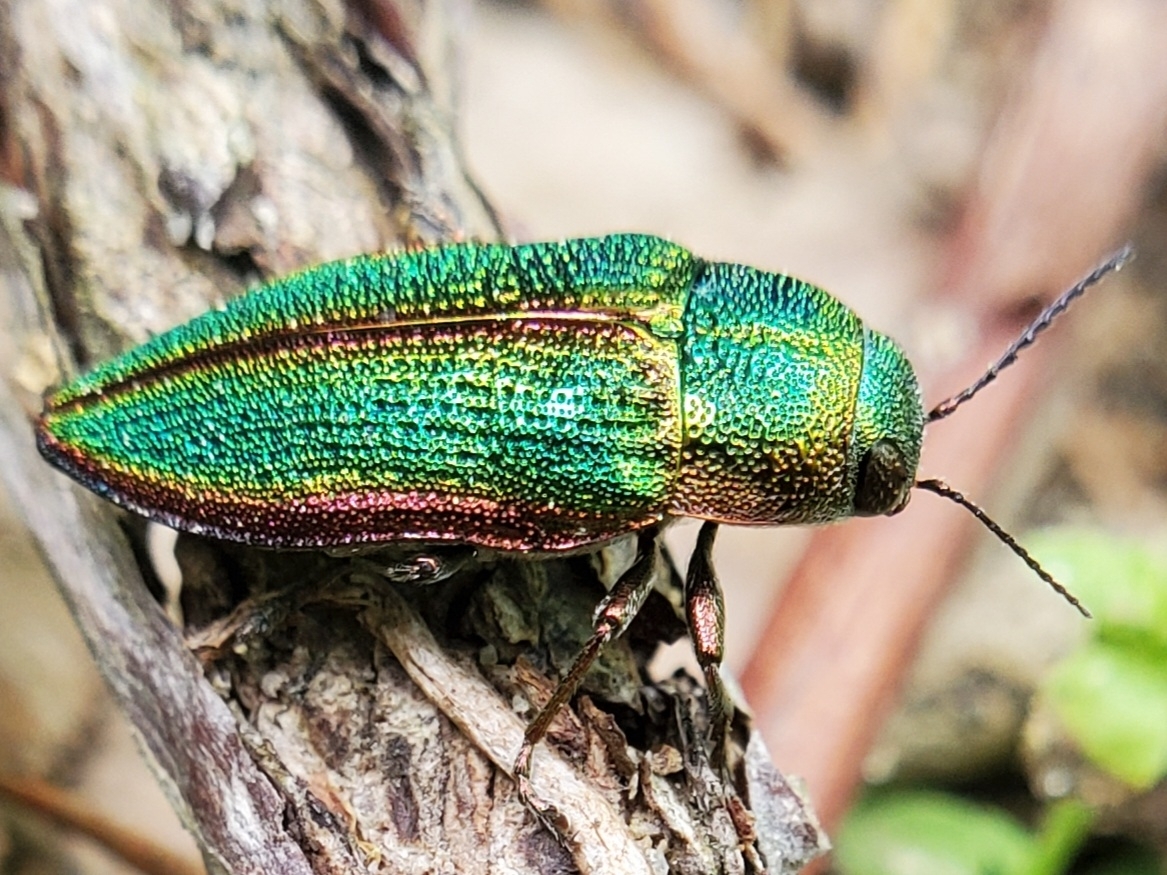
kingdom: Animalia
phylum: Arthropoda
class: Insecta
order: Coleoptera
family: Buprestidae
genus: Buprestis
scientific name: Buprestis salisburyensis
